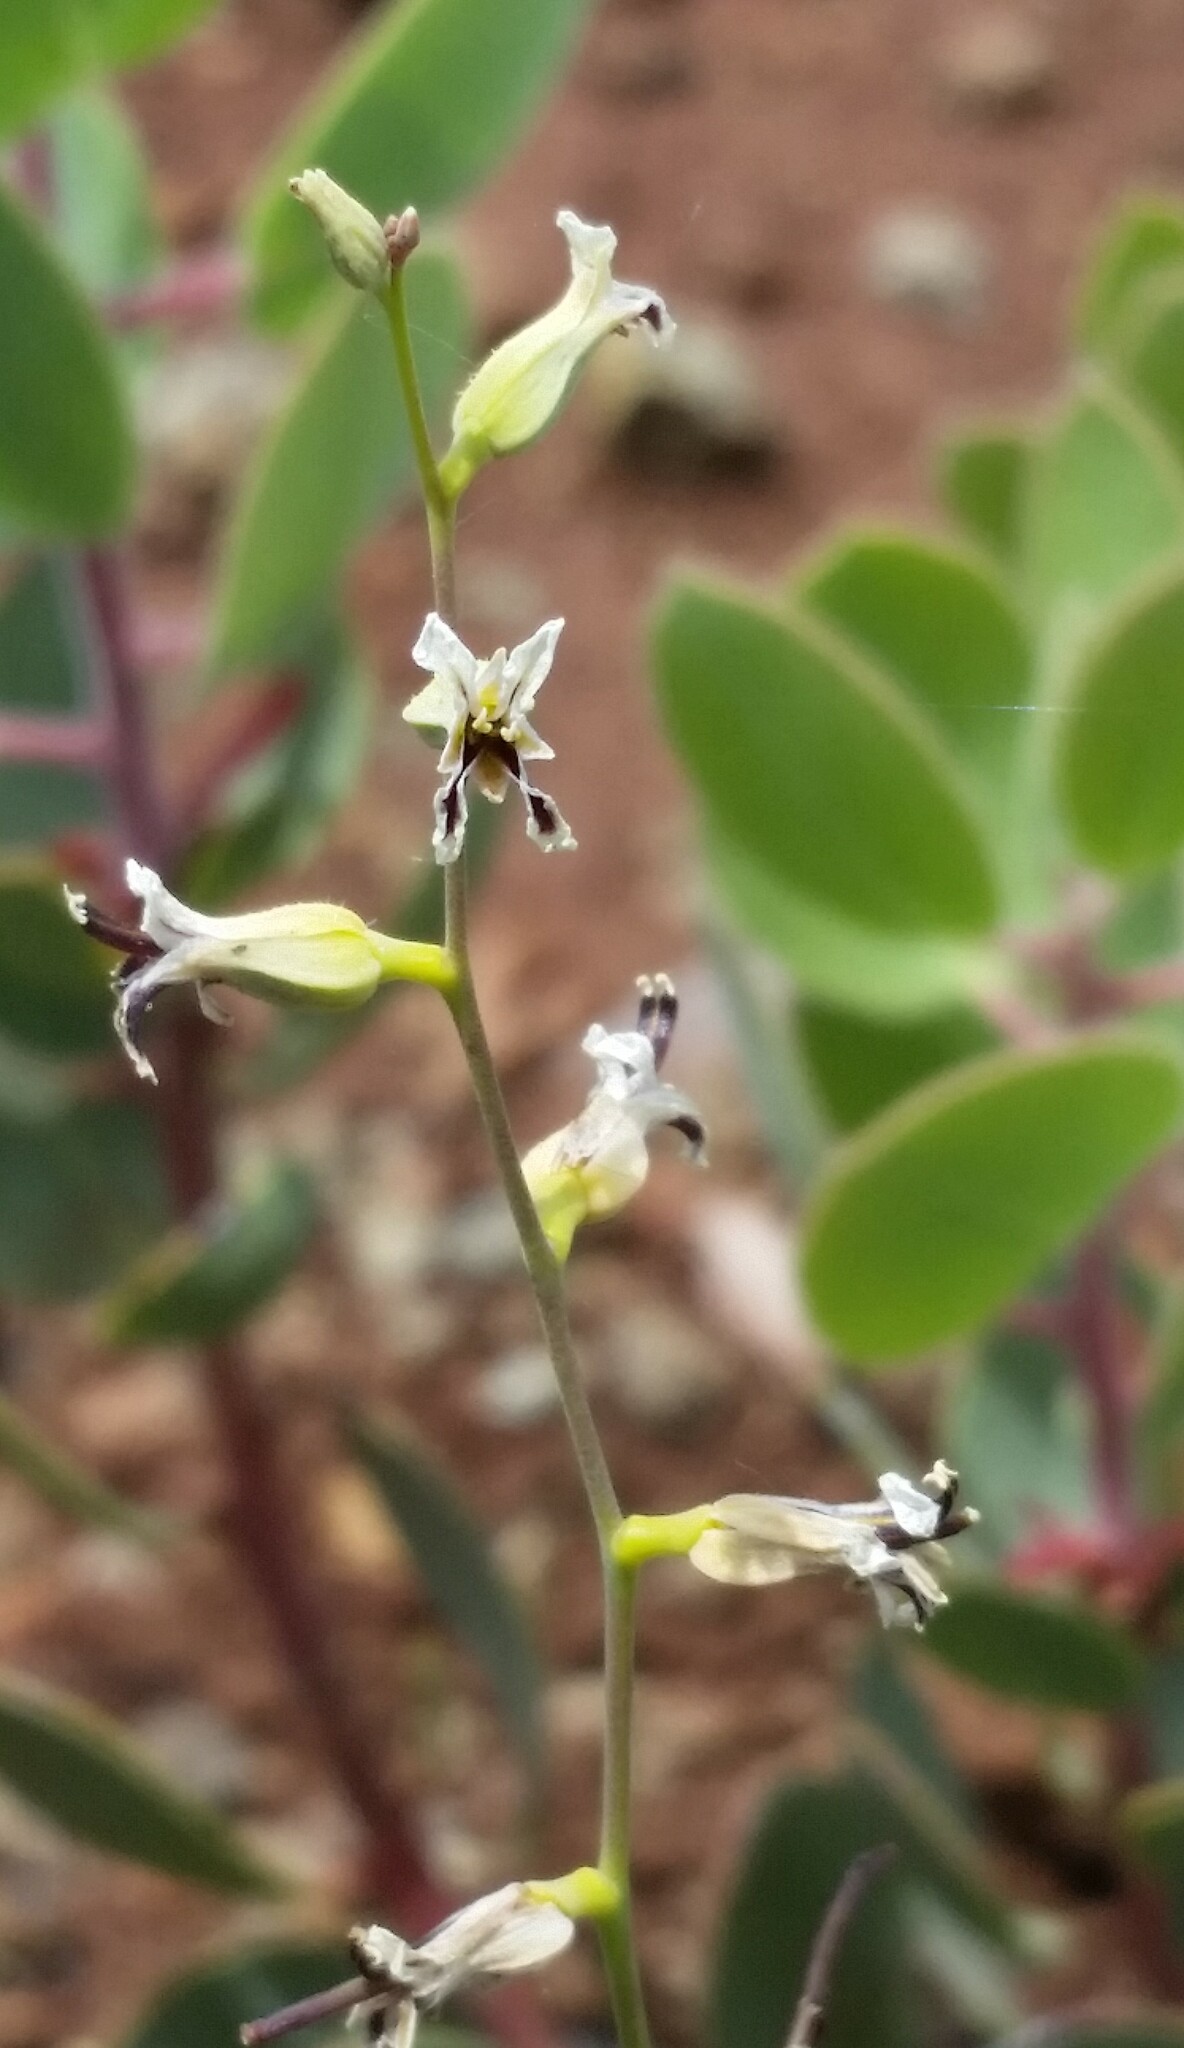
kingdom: Plantae
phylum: Tracheophyta
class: Magnoliopsida
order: Brassicales
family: Brassicaceae
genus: Streptanthus
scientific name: Streptanthus barbiger
